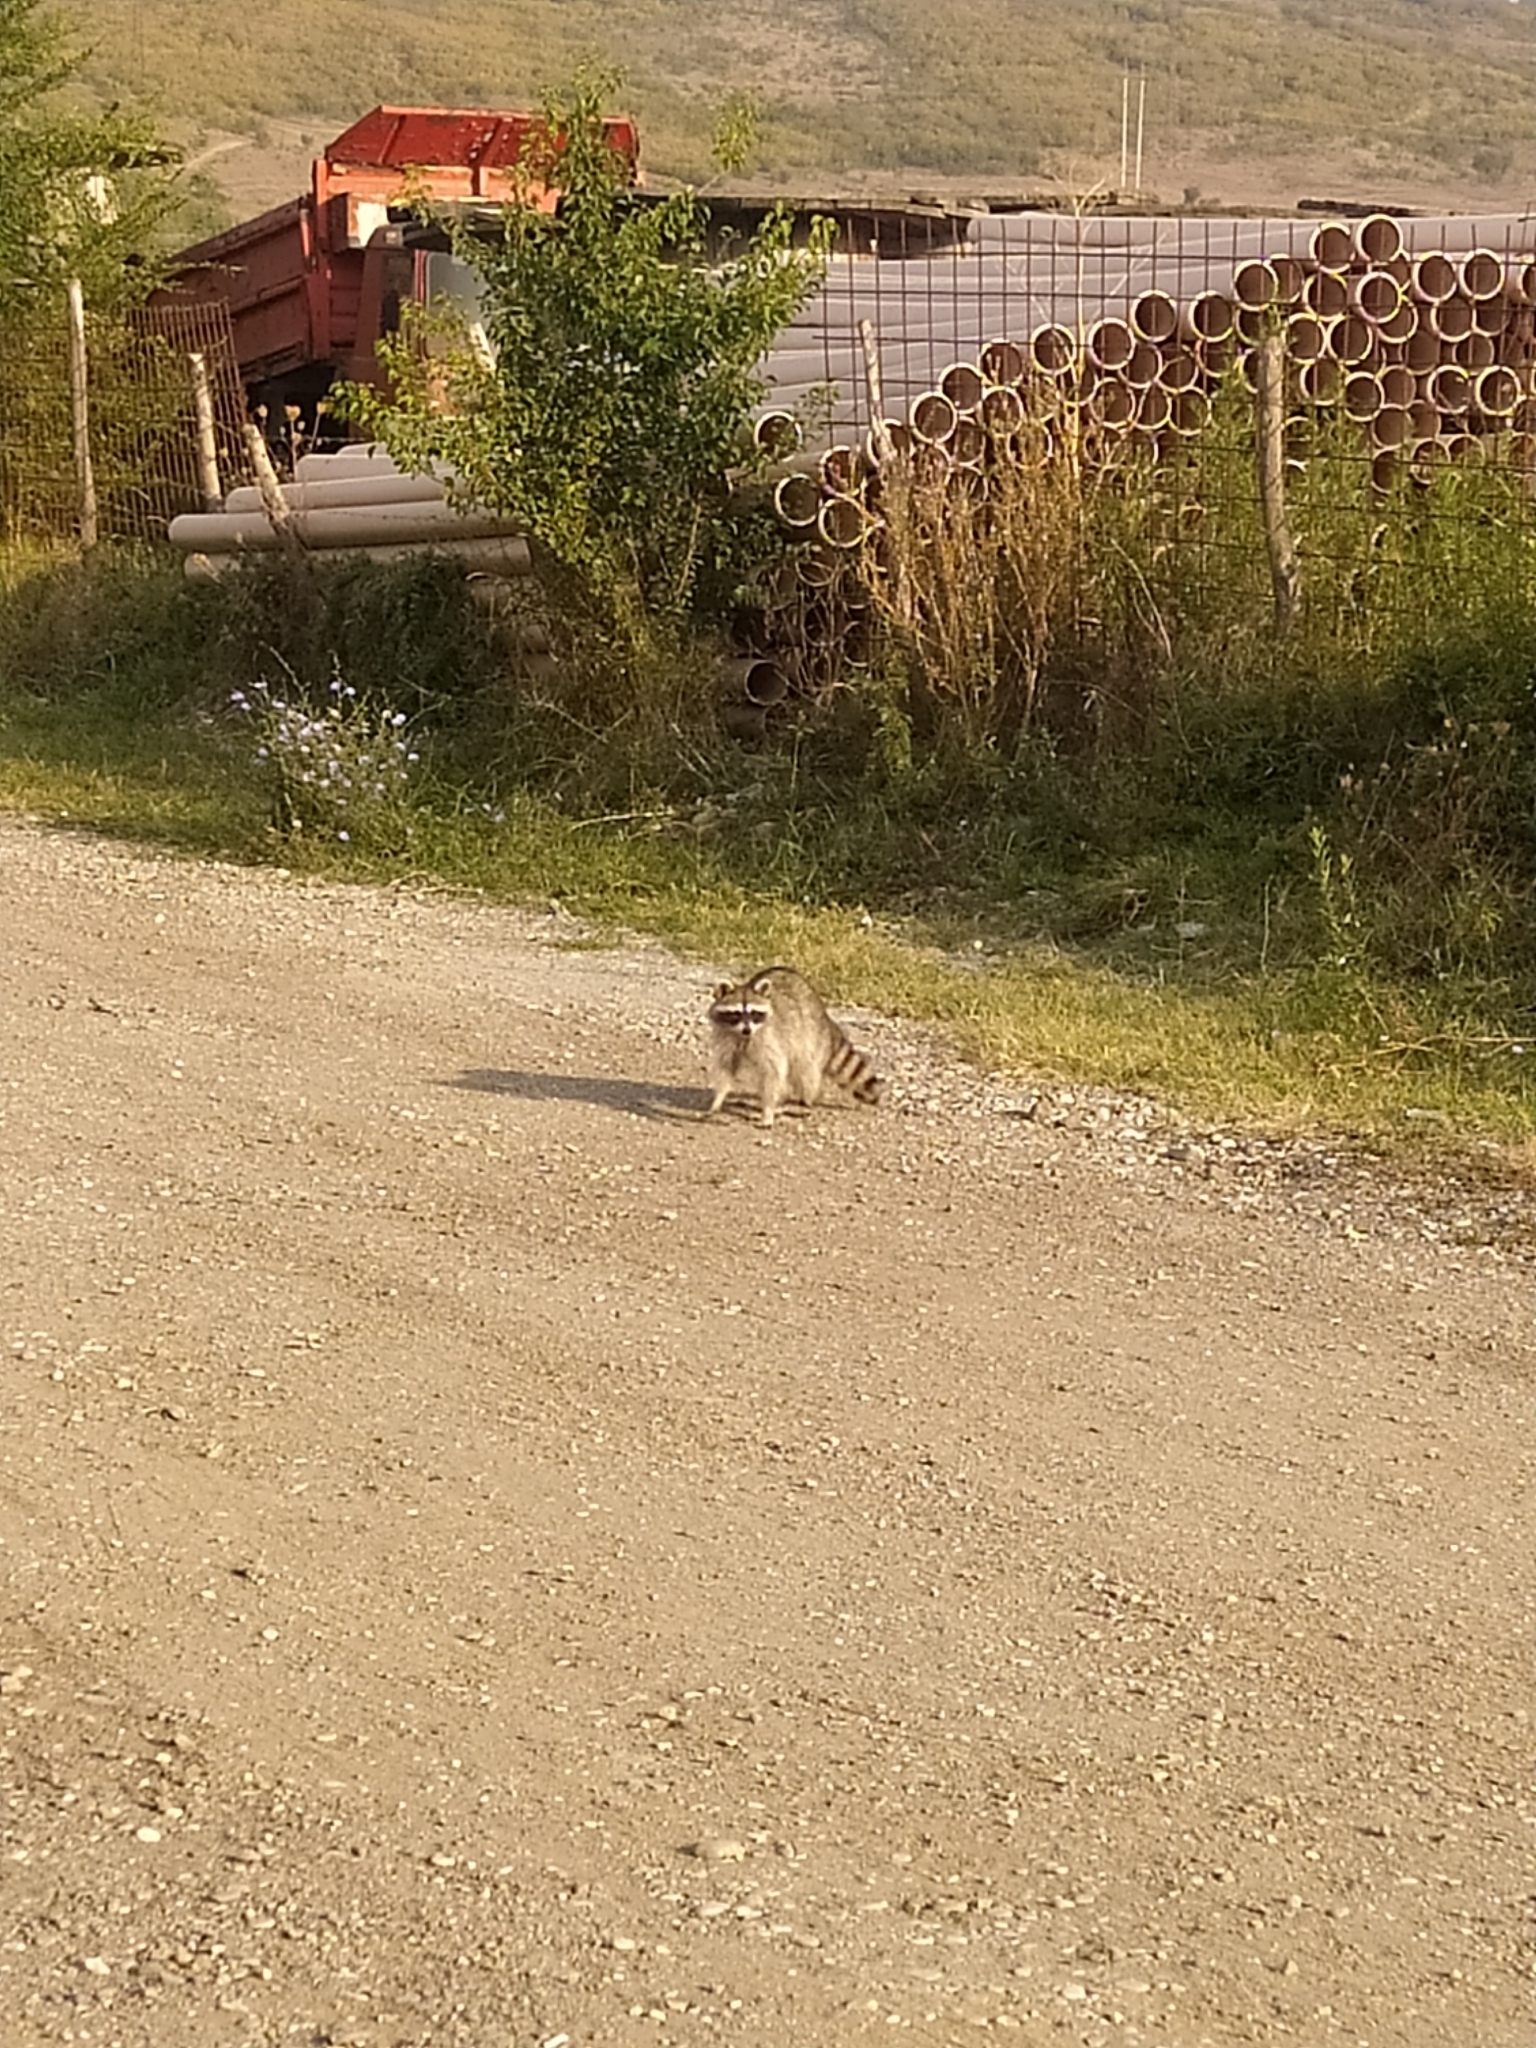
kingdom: Animalia
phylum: Chordata
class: Mammalia
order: Carnivora
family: Procyonidae
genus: Procyon
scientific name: Procyon lotor
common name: Raccoon
